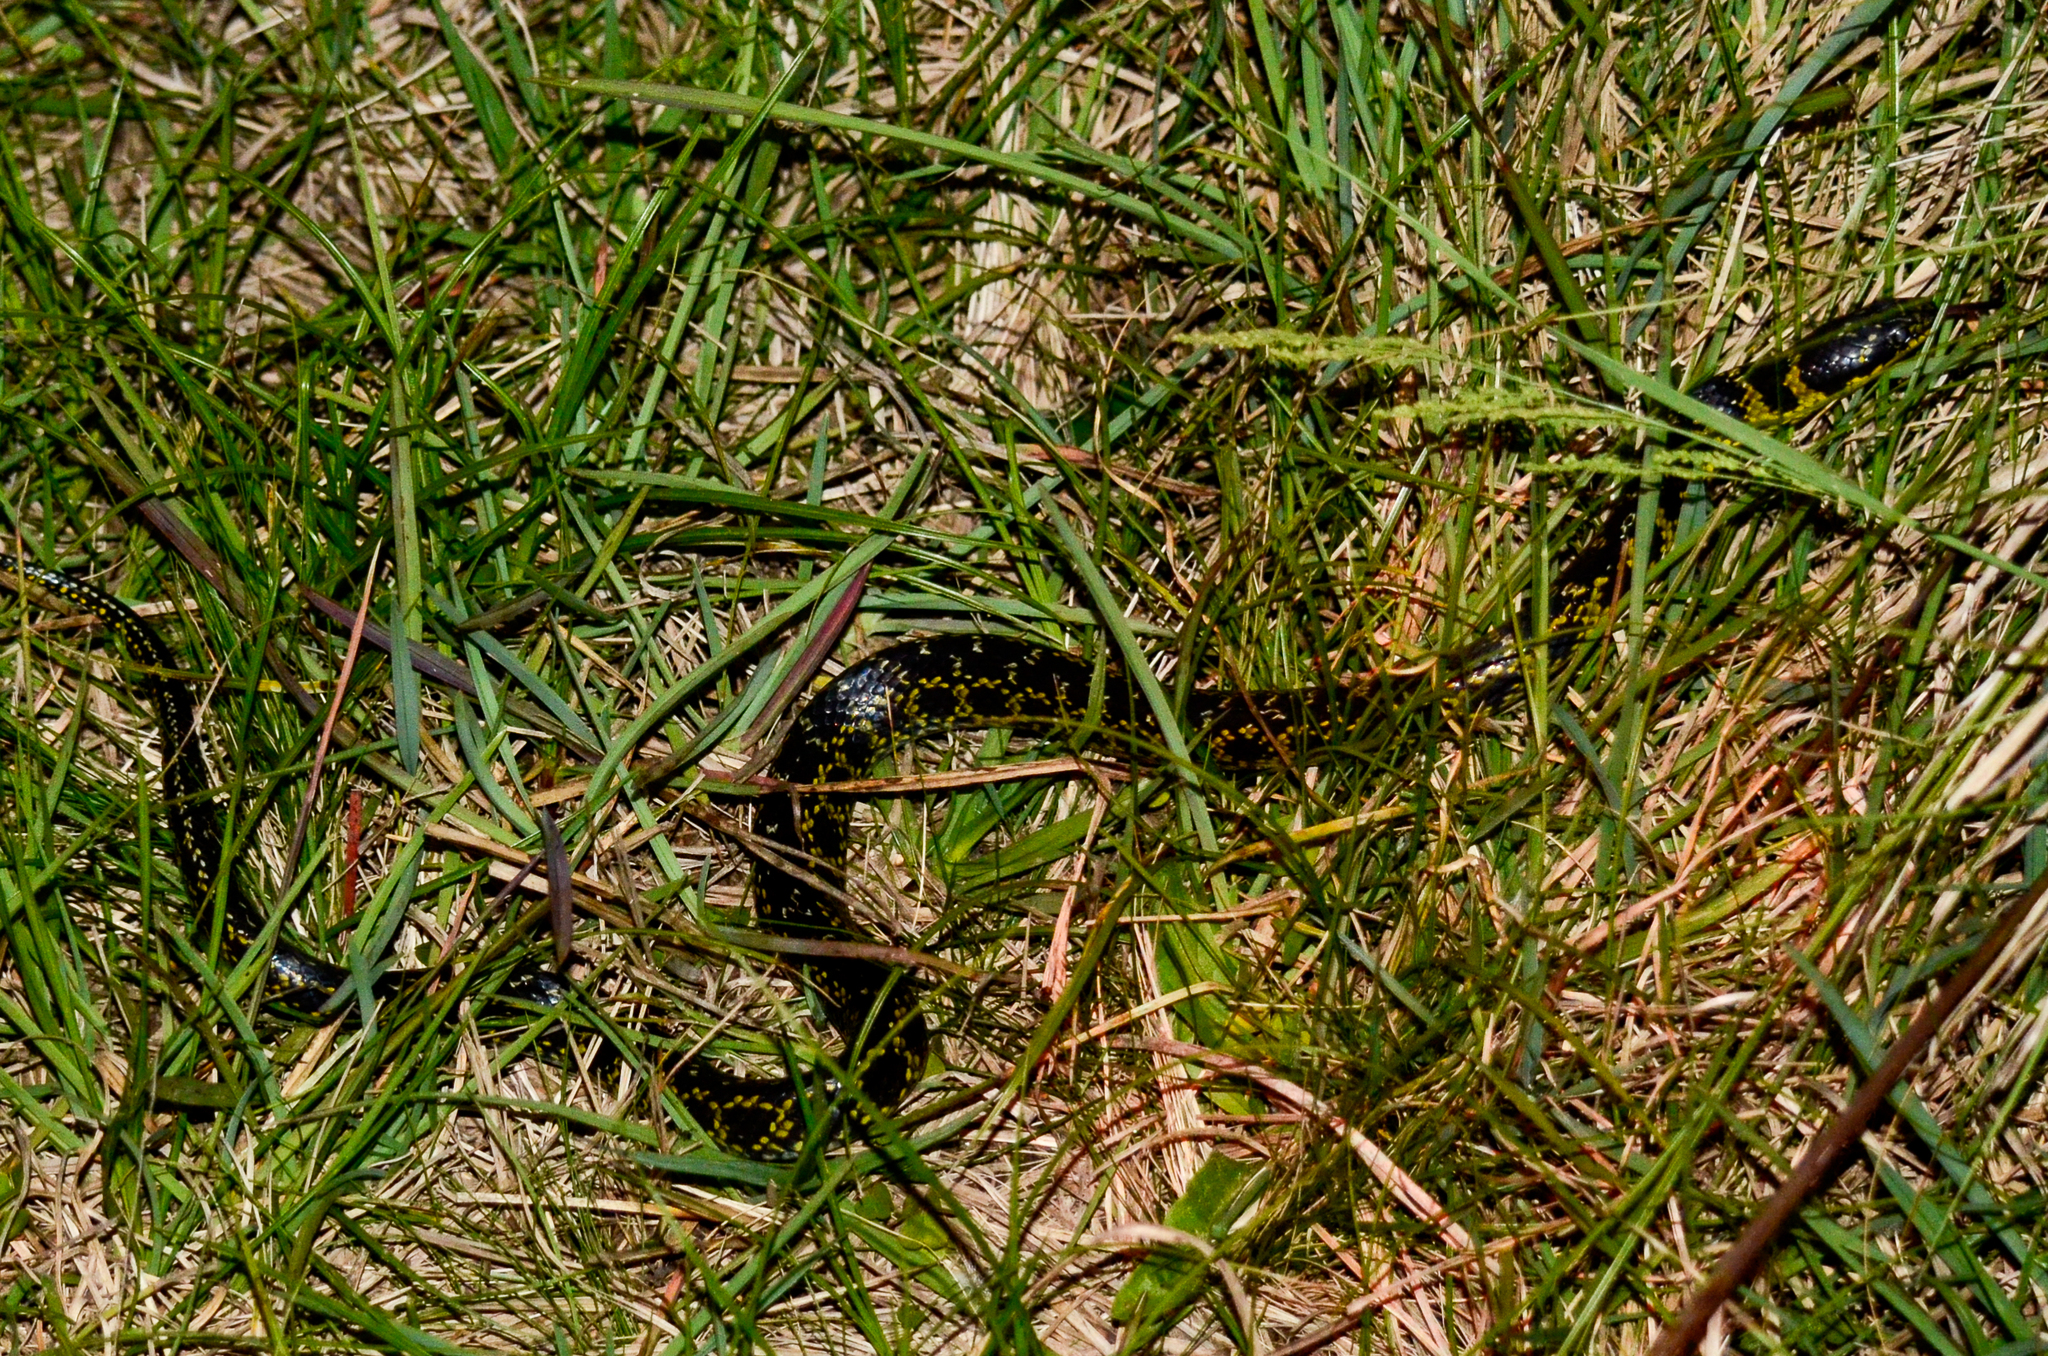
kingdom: Animalia
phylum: Chordata
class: Squamata
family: Colubridae
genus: Erythrolamprus
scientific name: Erythrolamprus poecilogyrus
